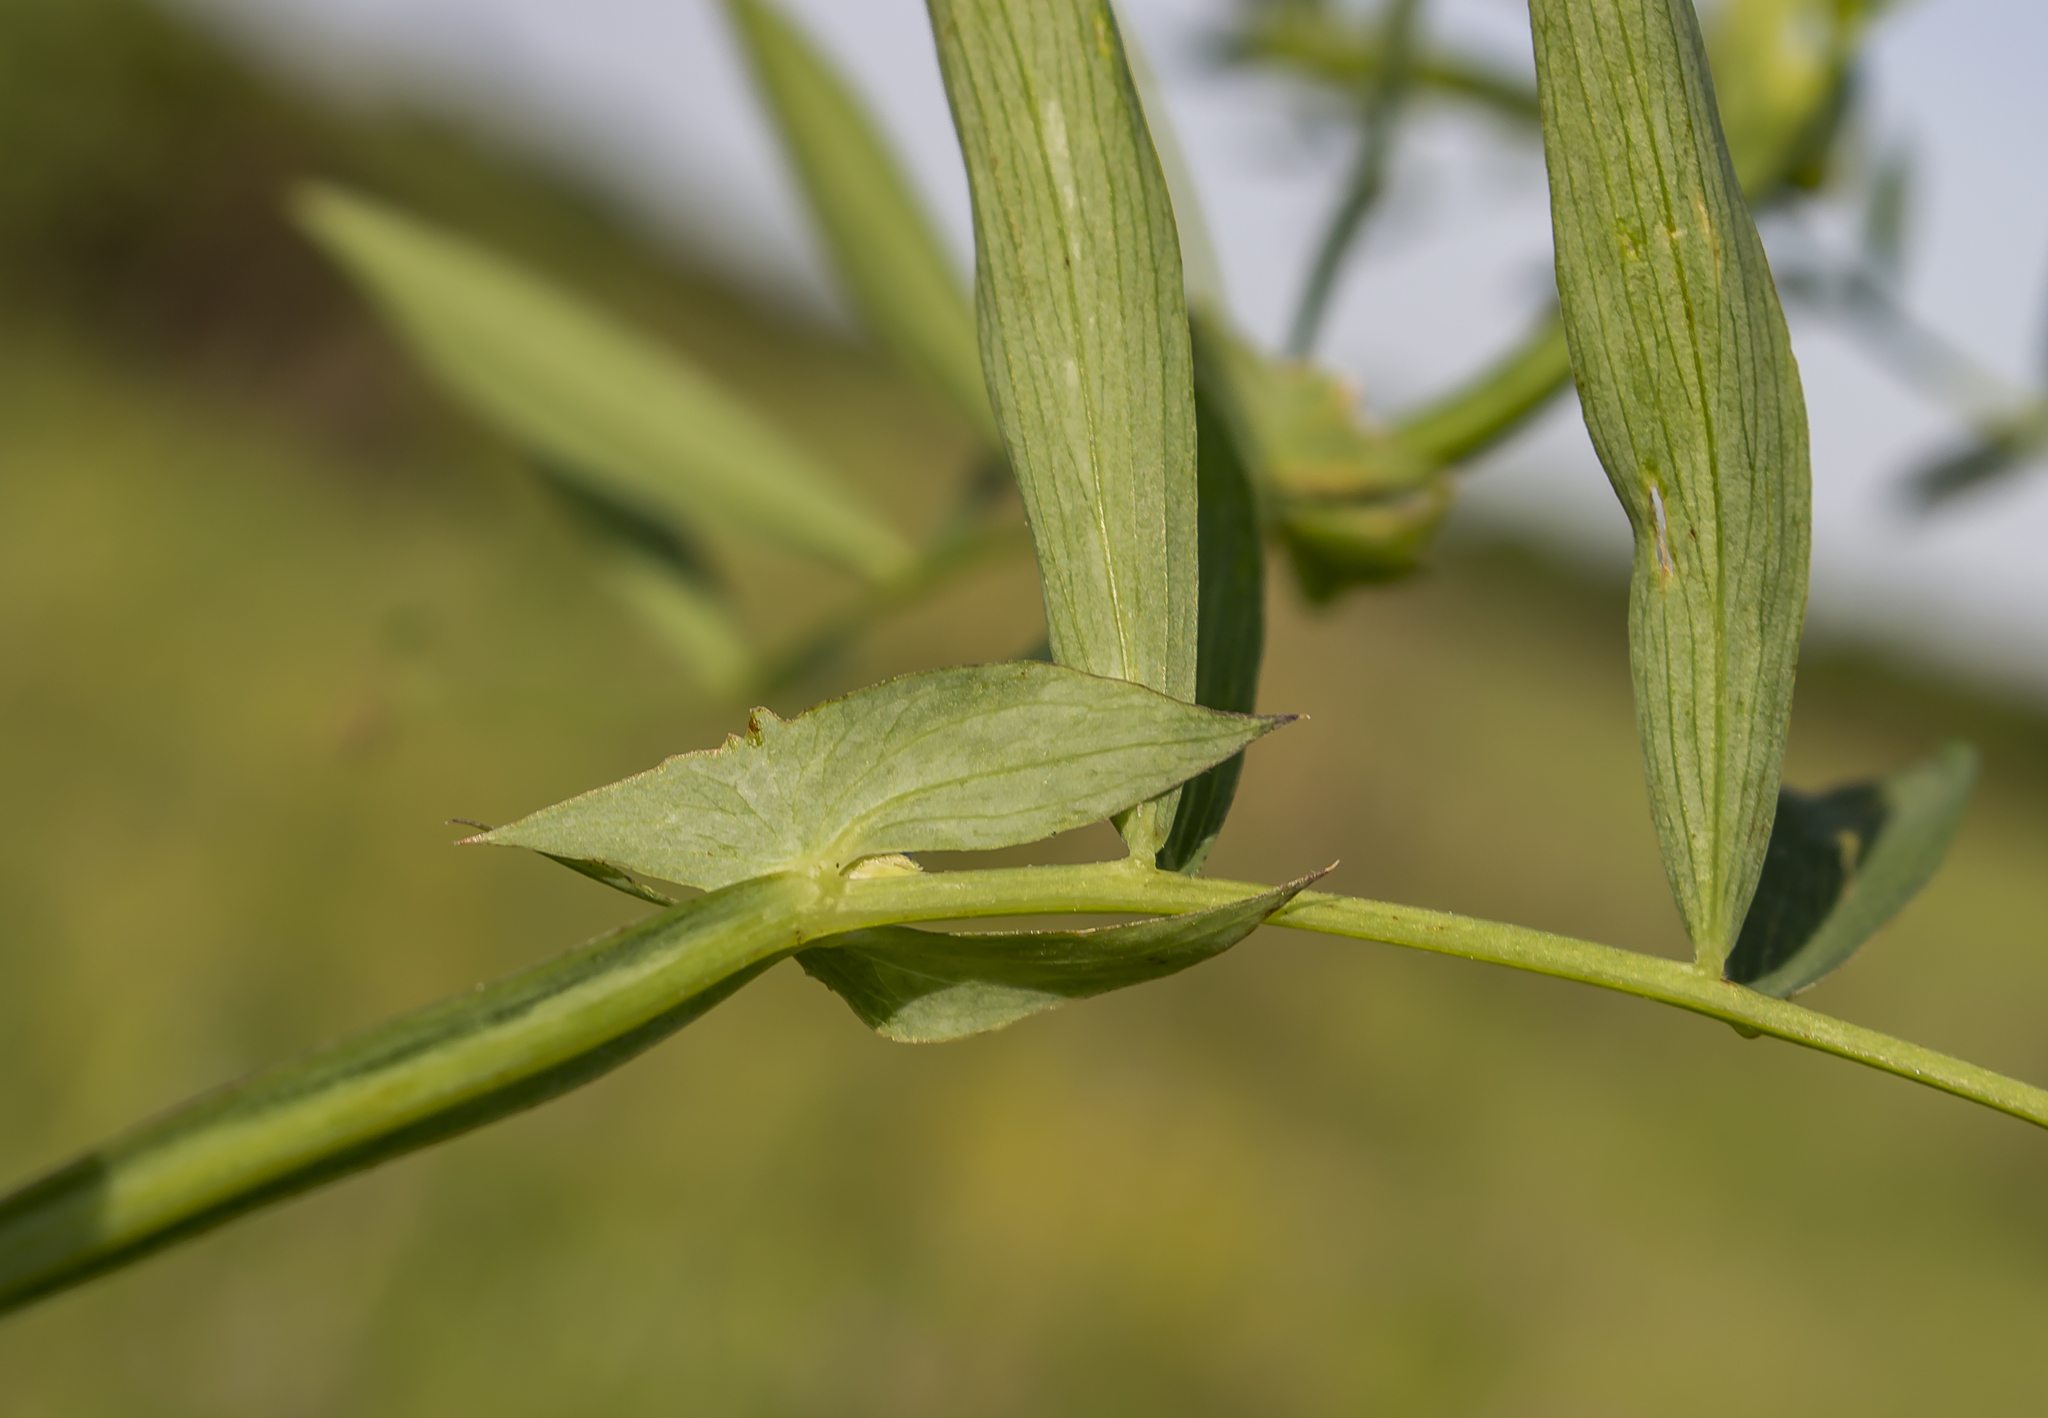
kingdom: Plantae
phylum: Tracheophyta
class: Magnoliopsida
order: Fabales
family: Fabaceae
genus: Lathyrus
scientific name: Lathyrus palustris
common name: Marsh pea
